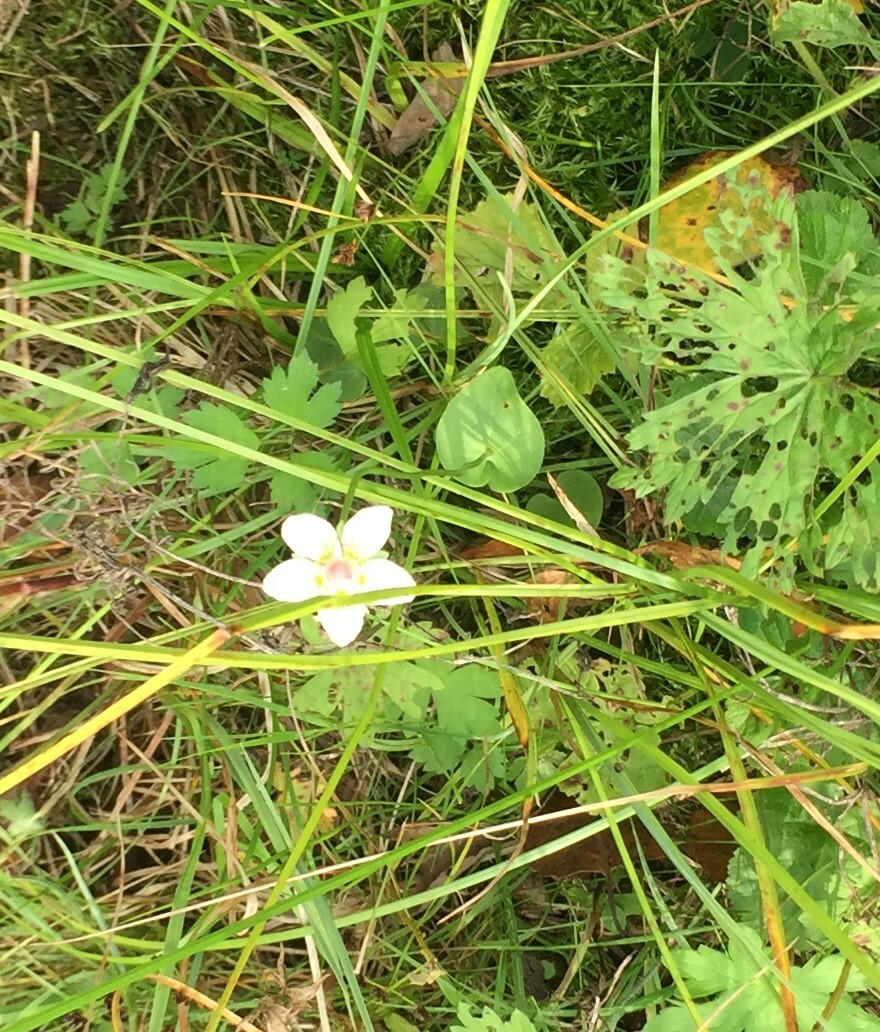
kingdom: Plantae
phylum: Tracheophyta
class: Magnoliopsida
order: Celastrales
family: Parnassiaceae
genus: Parnassia
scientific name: Parnassia palustris
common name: Grass-of-parnassus
